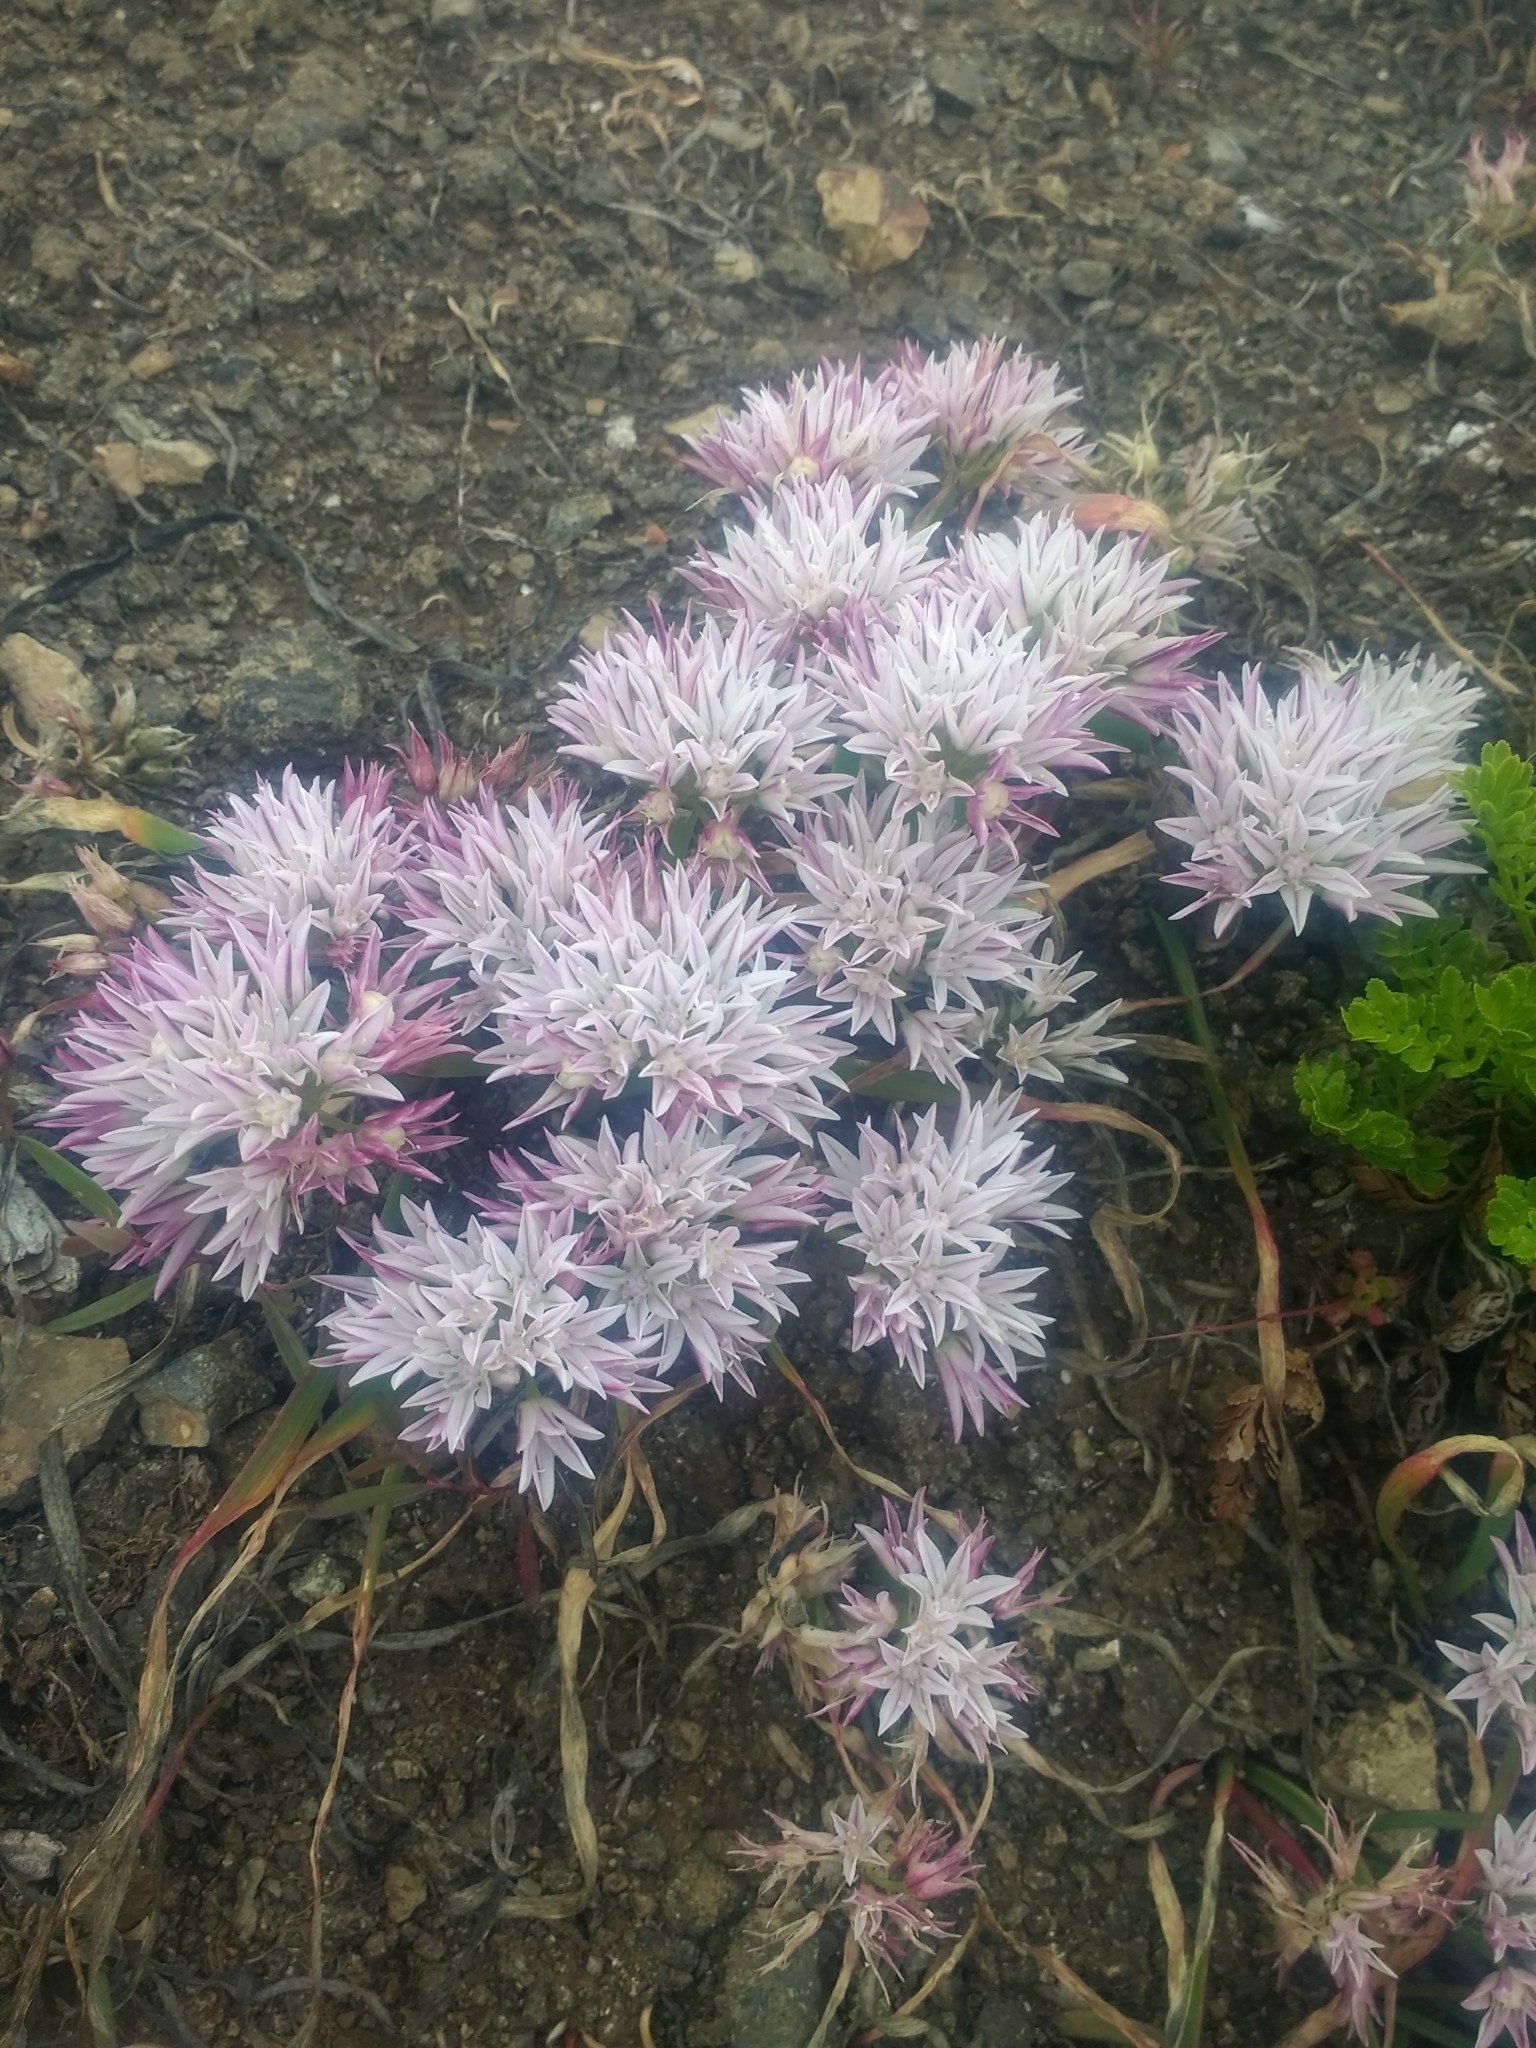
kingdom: Plantae
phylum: Tracheophyta
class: Liliopsida
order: Asparagales
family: Amaryllidaceae
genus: Allium
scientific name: Allium crenulatum
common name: Olympic onion
